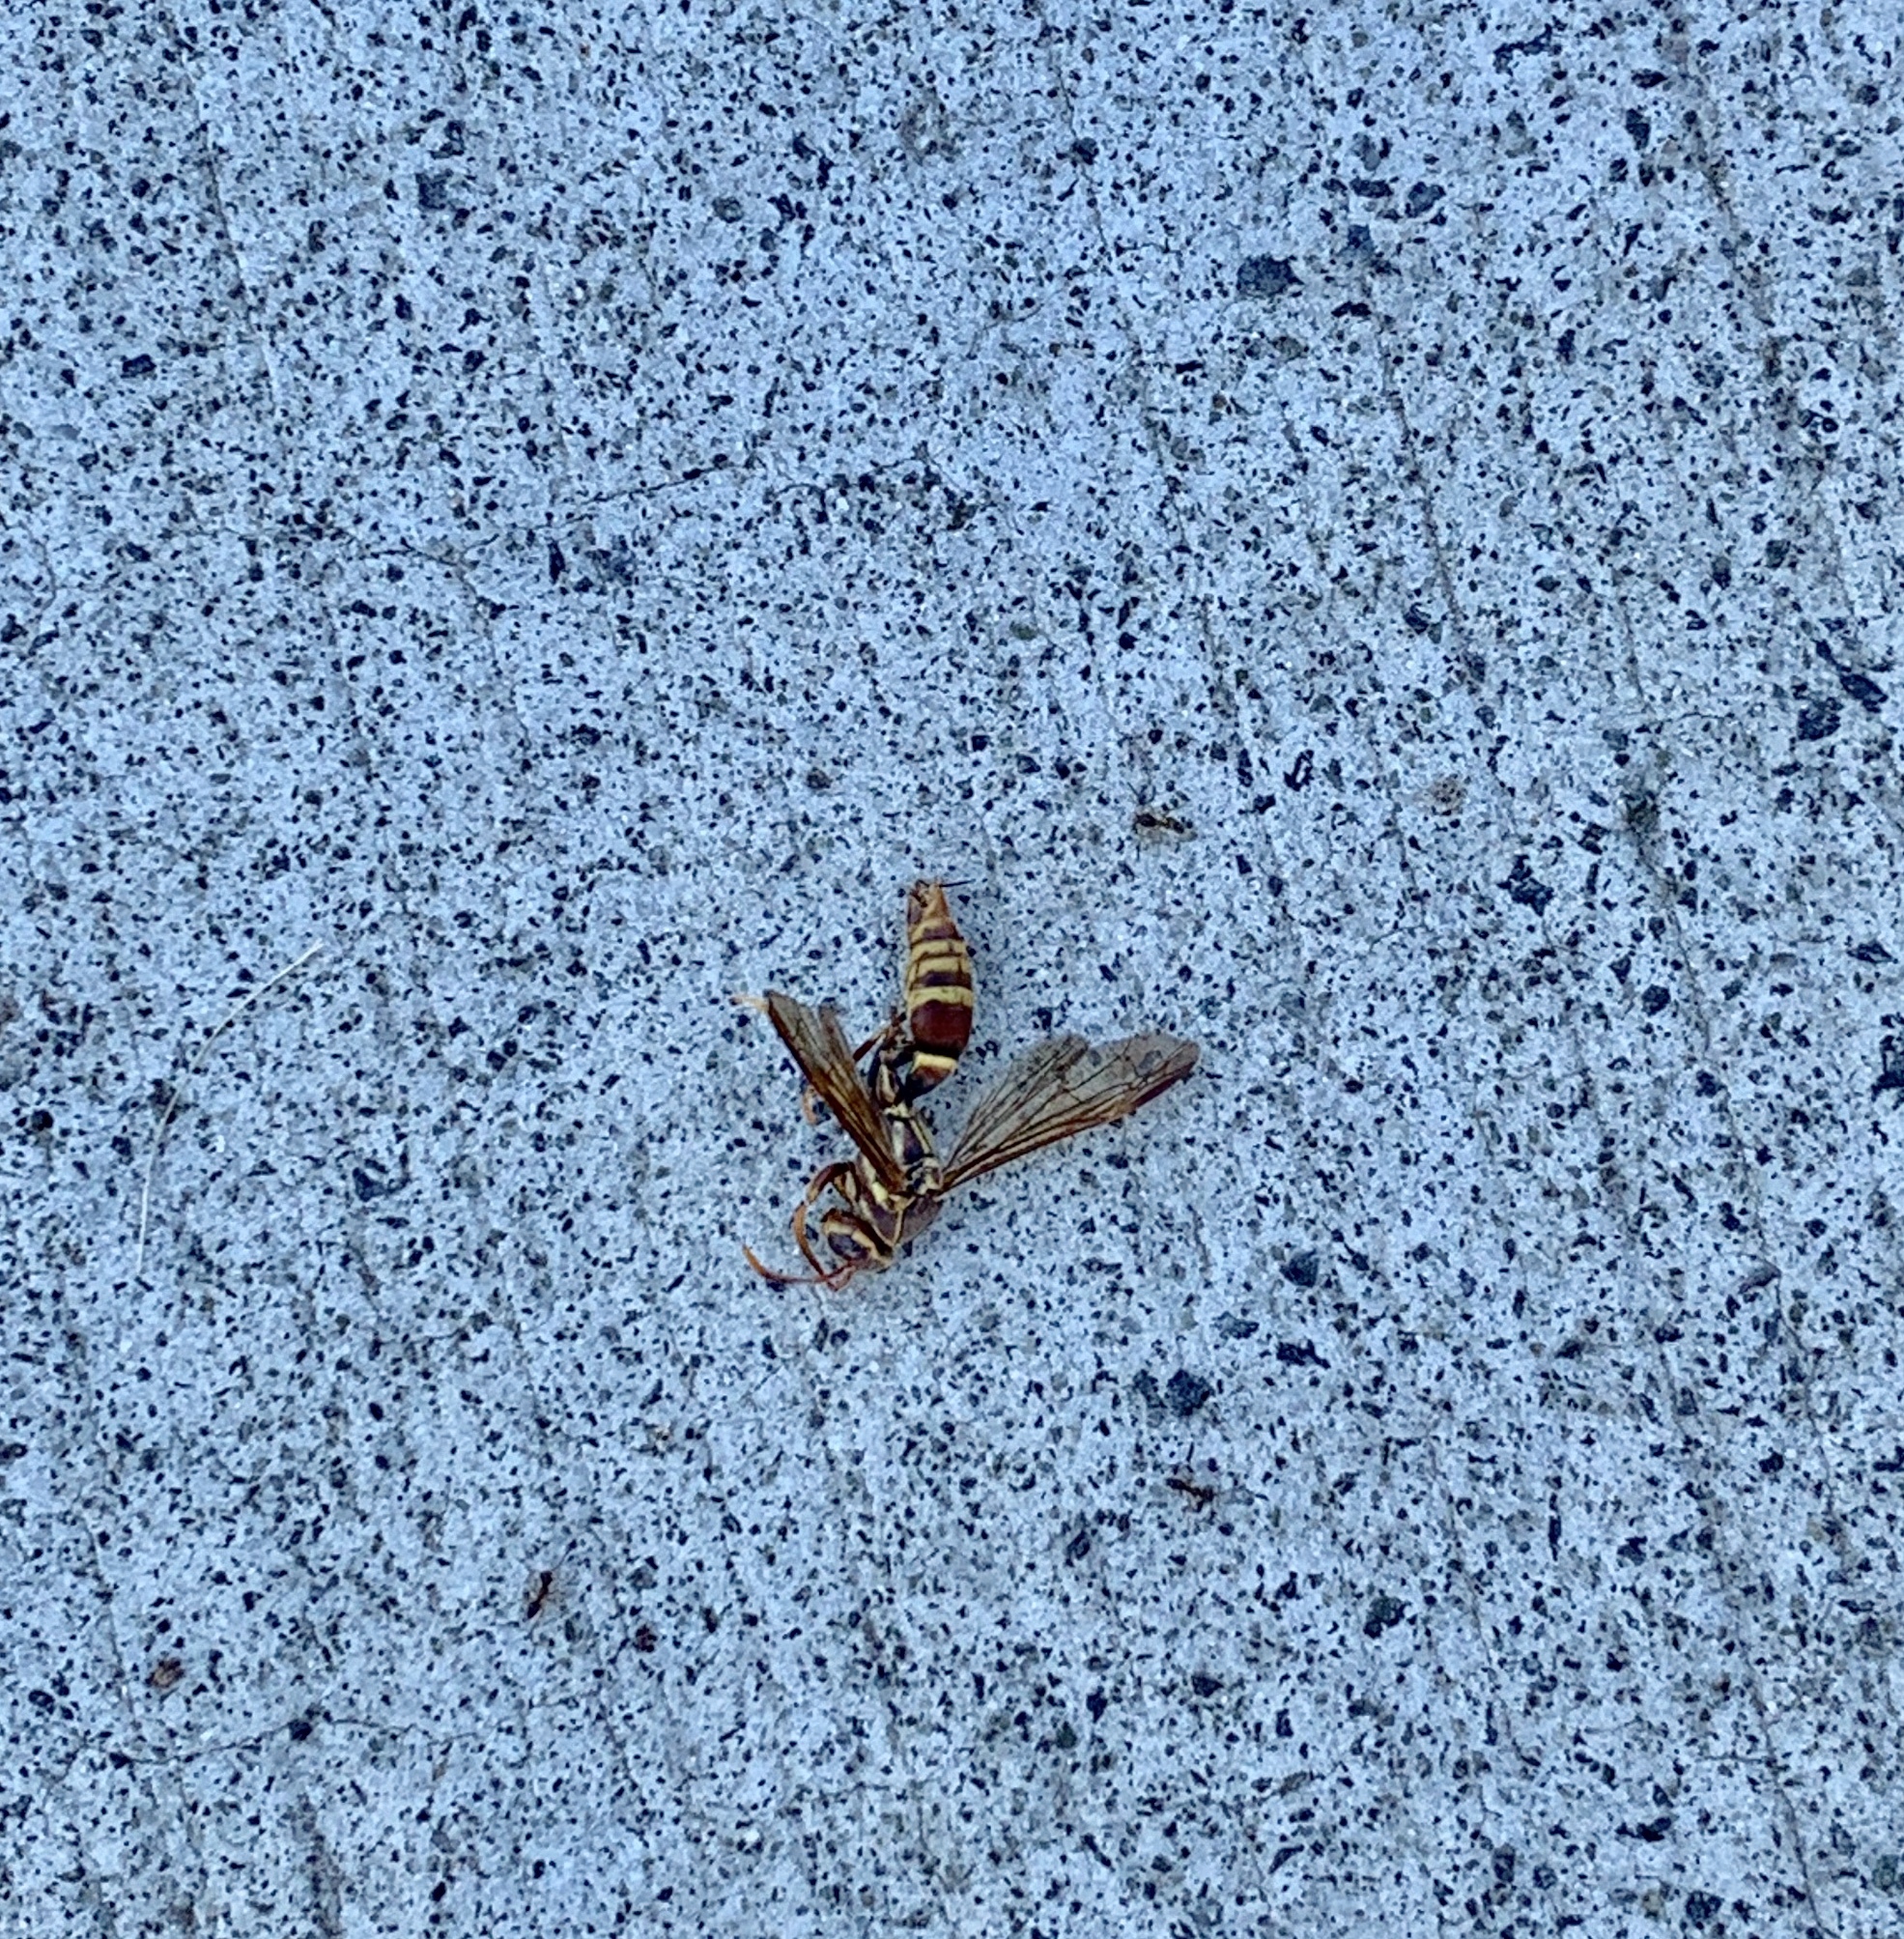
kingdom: Animalia
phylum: Arthropoda
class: Insecta
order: Hymenoptera
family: Eumenidae
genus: Polistes
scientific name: Polistes exclamans
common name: Paper wasp
